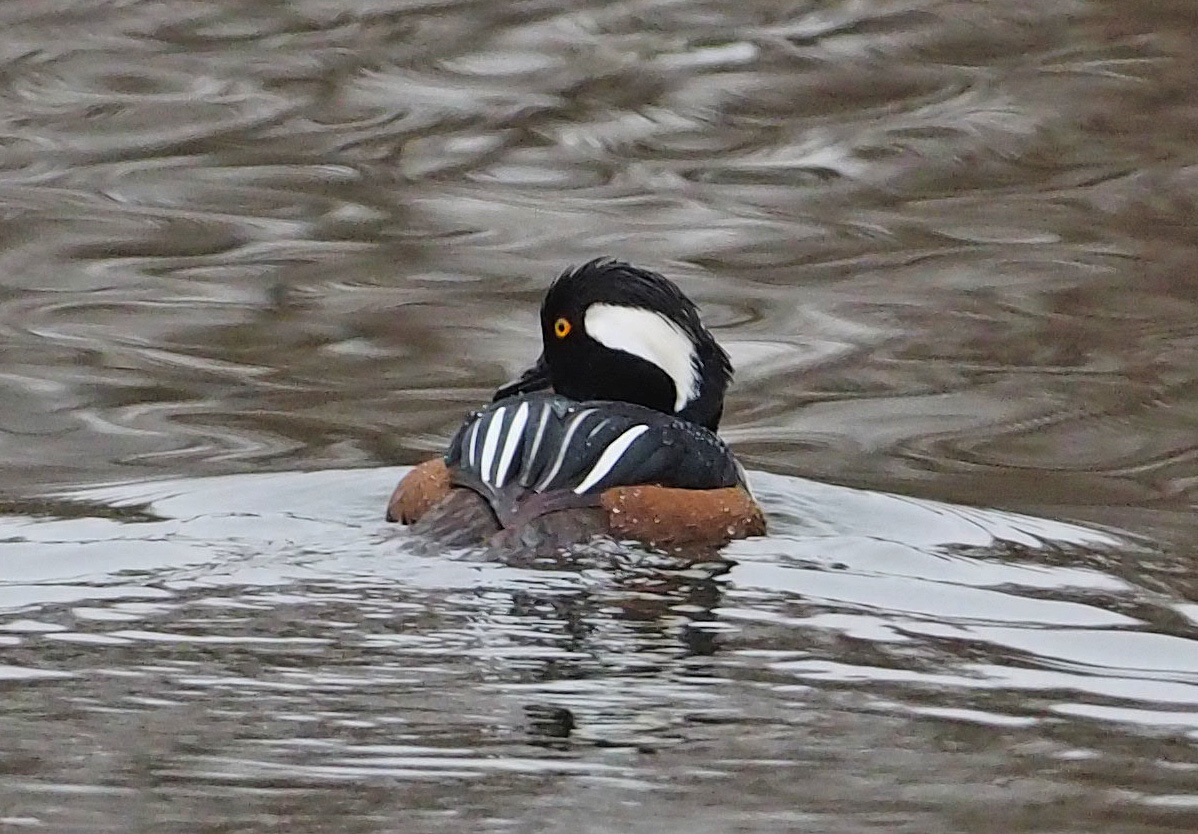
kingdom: Animalia
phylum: Chordata
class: Aves
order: Anseriformes
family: Anatidae
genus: Lophodytes
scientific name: Lophodytes cucullatus
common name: Hooded merganser
